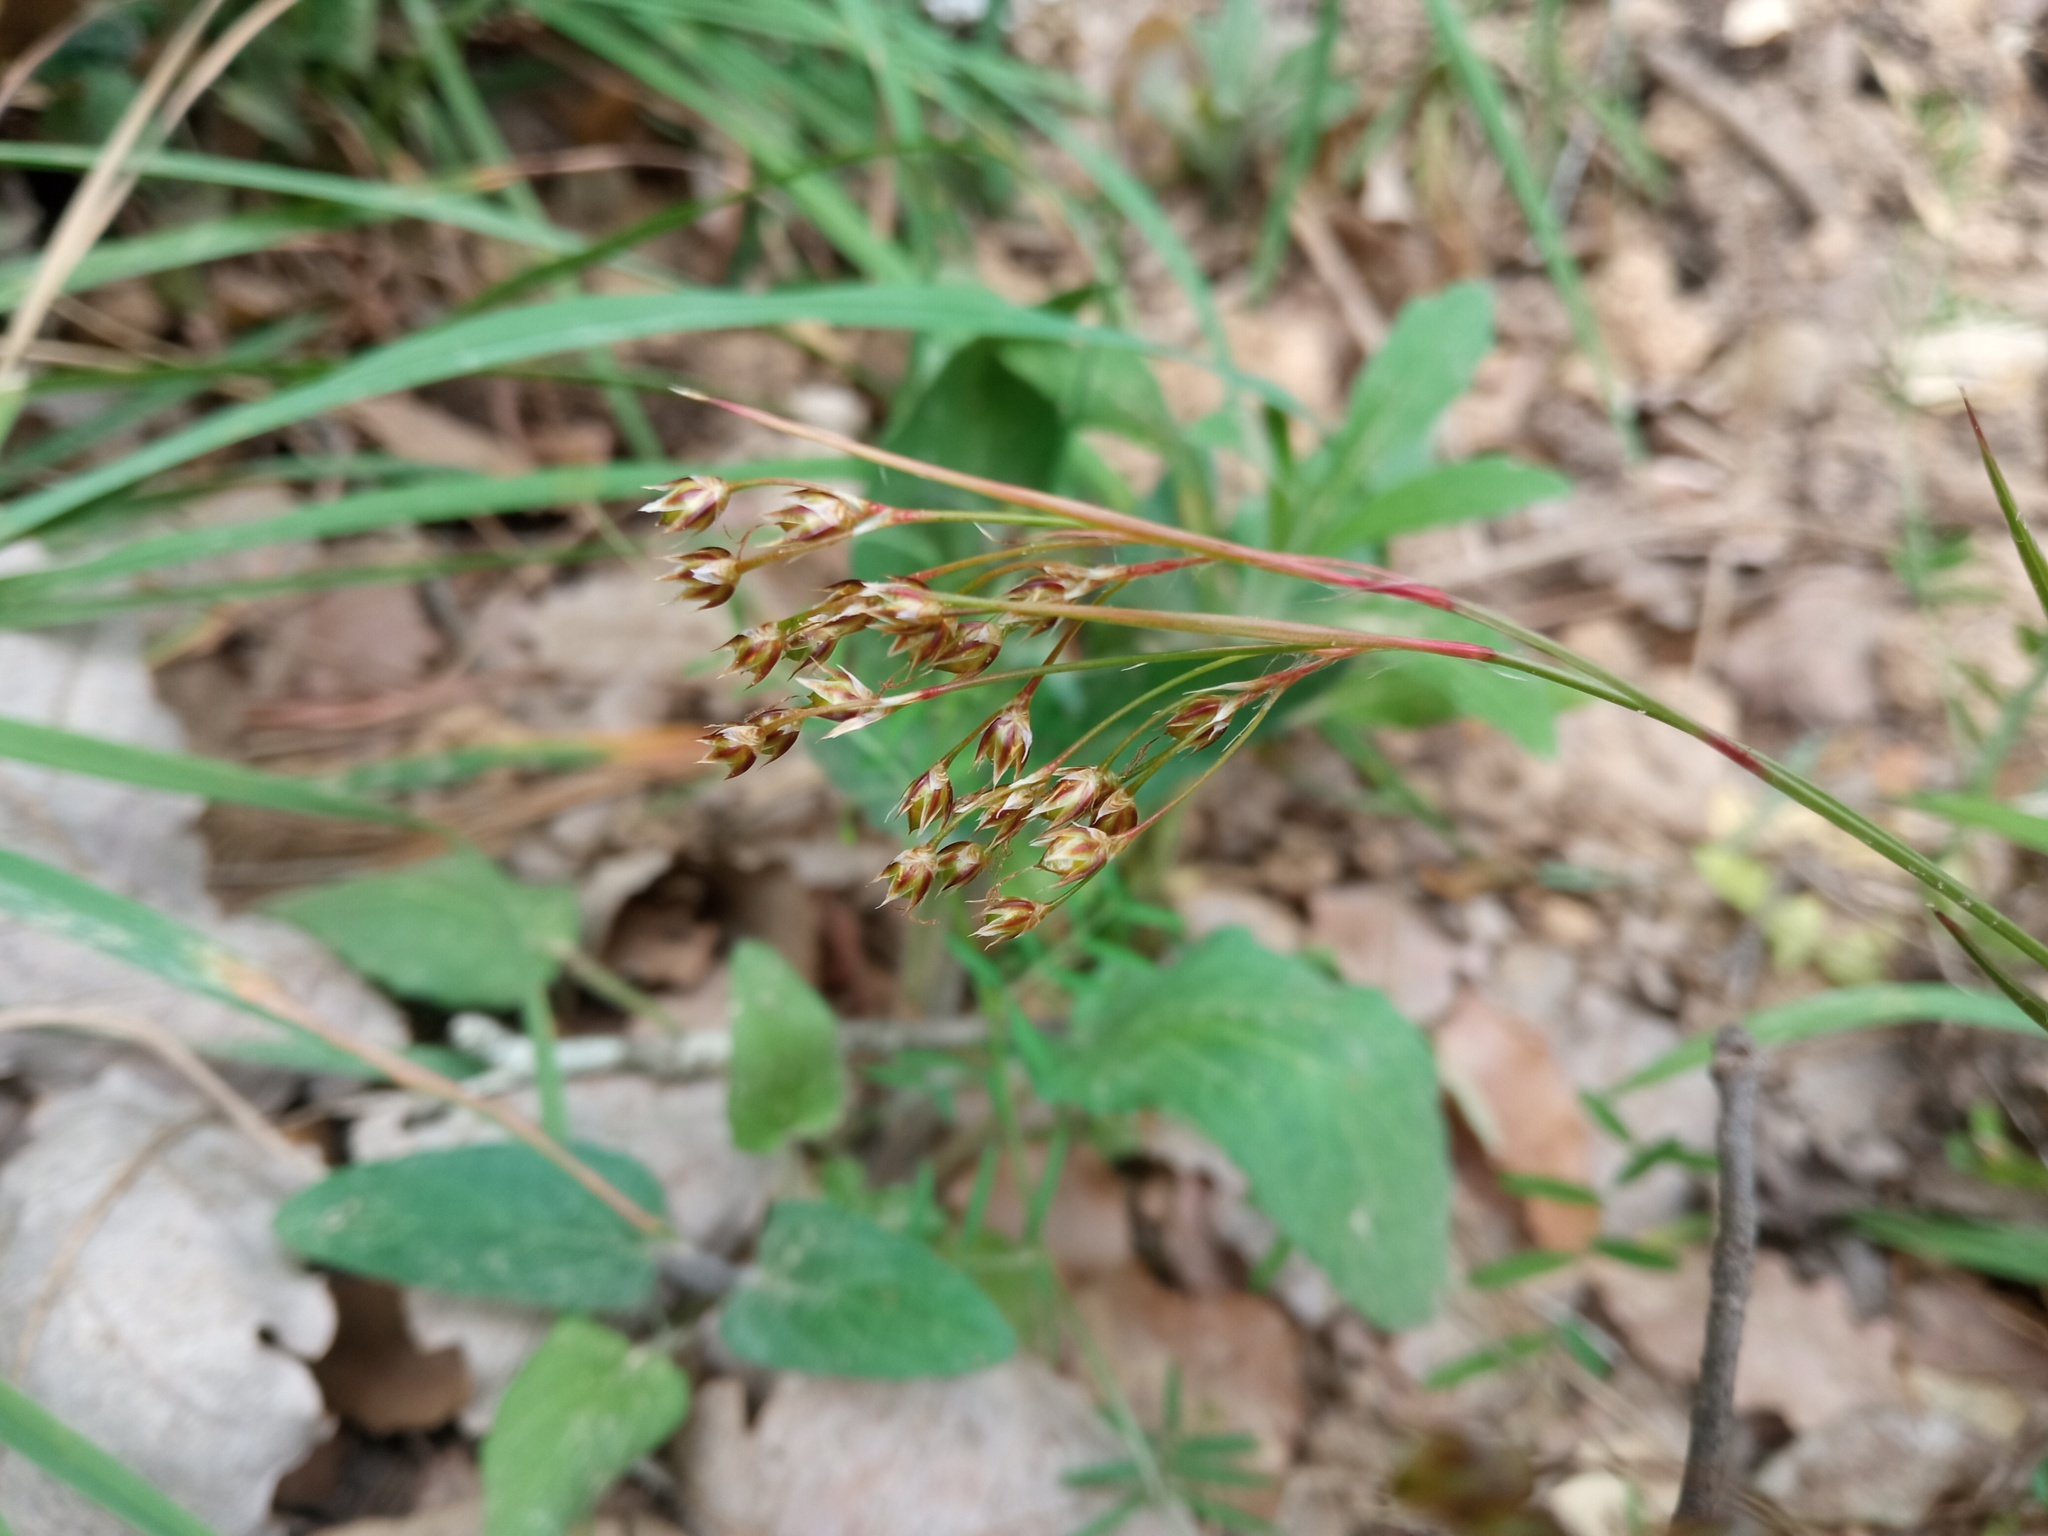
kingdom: Plantae
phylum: Tracheophyta
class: Liliopsida
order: Poales
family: Juncaceae
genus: Luzula
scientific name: Luzula forsteri
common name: Southern wood-rush
